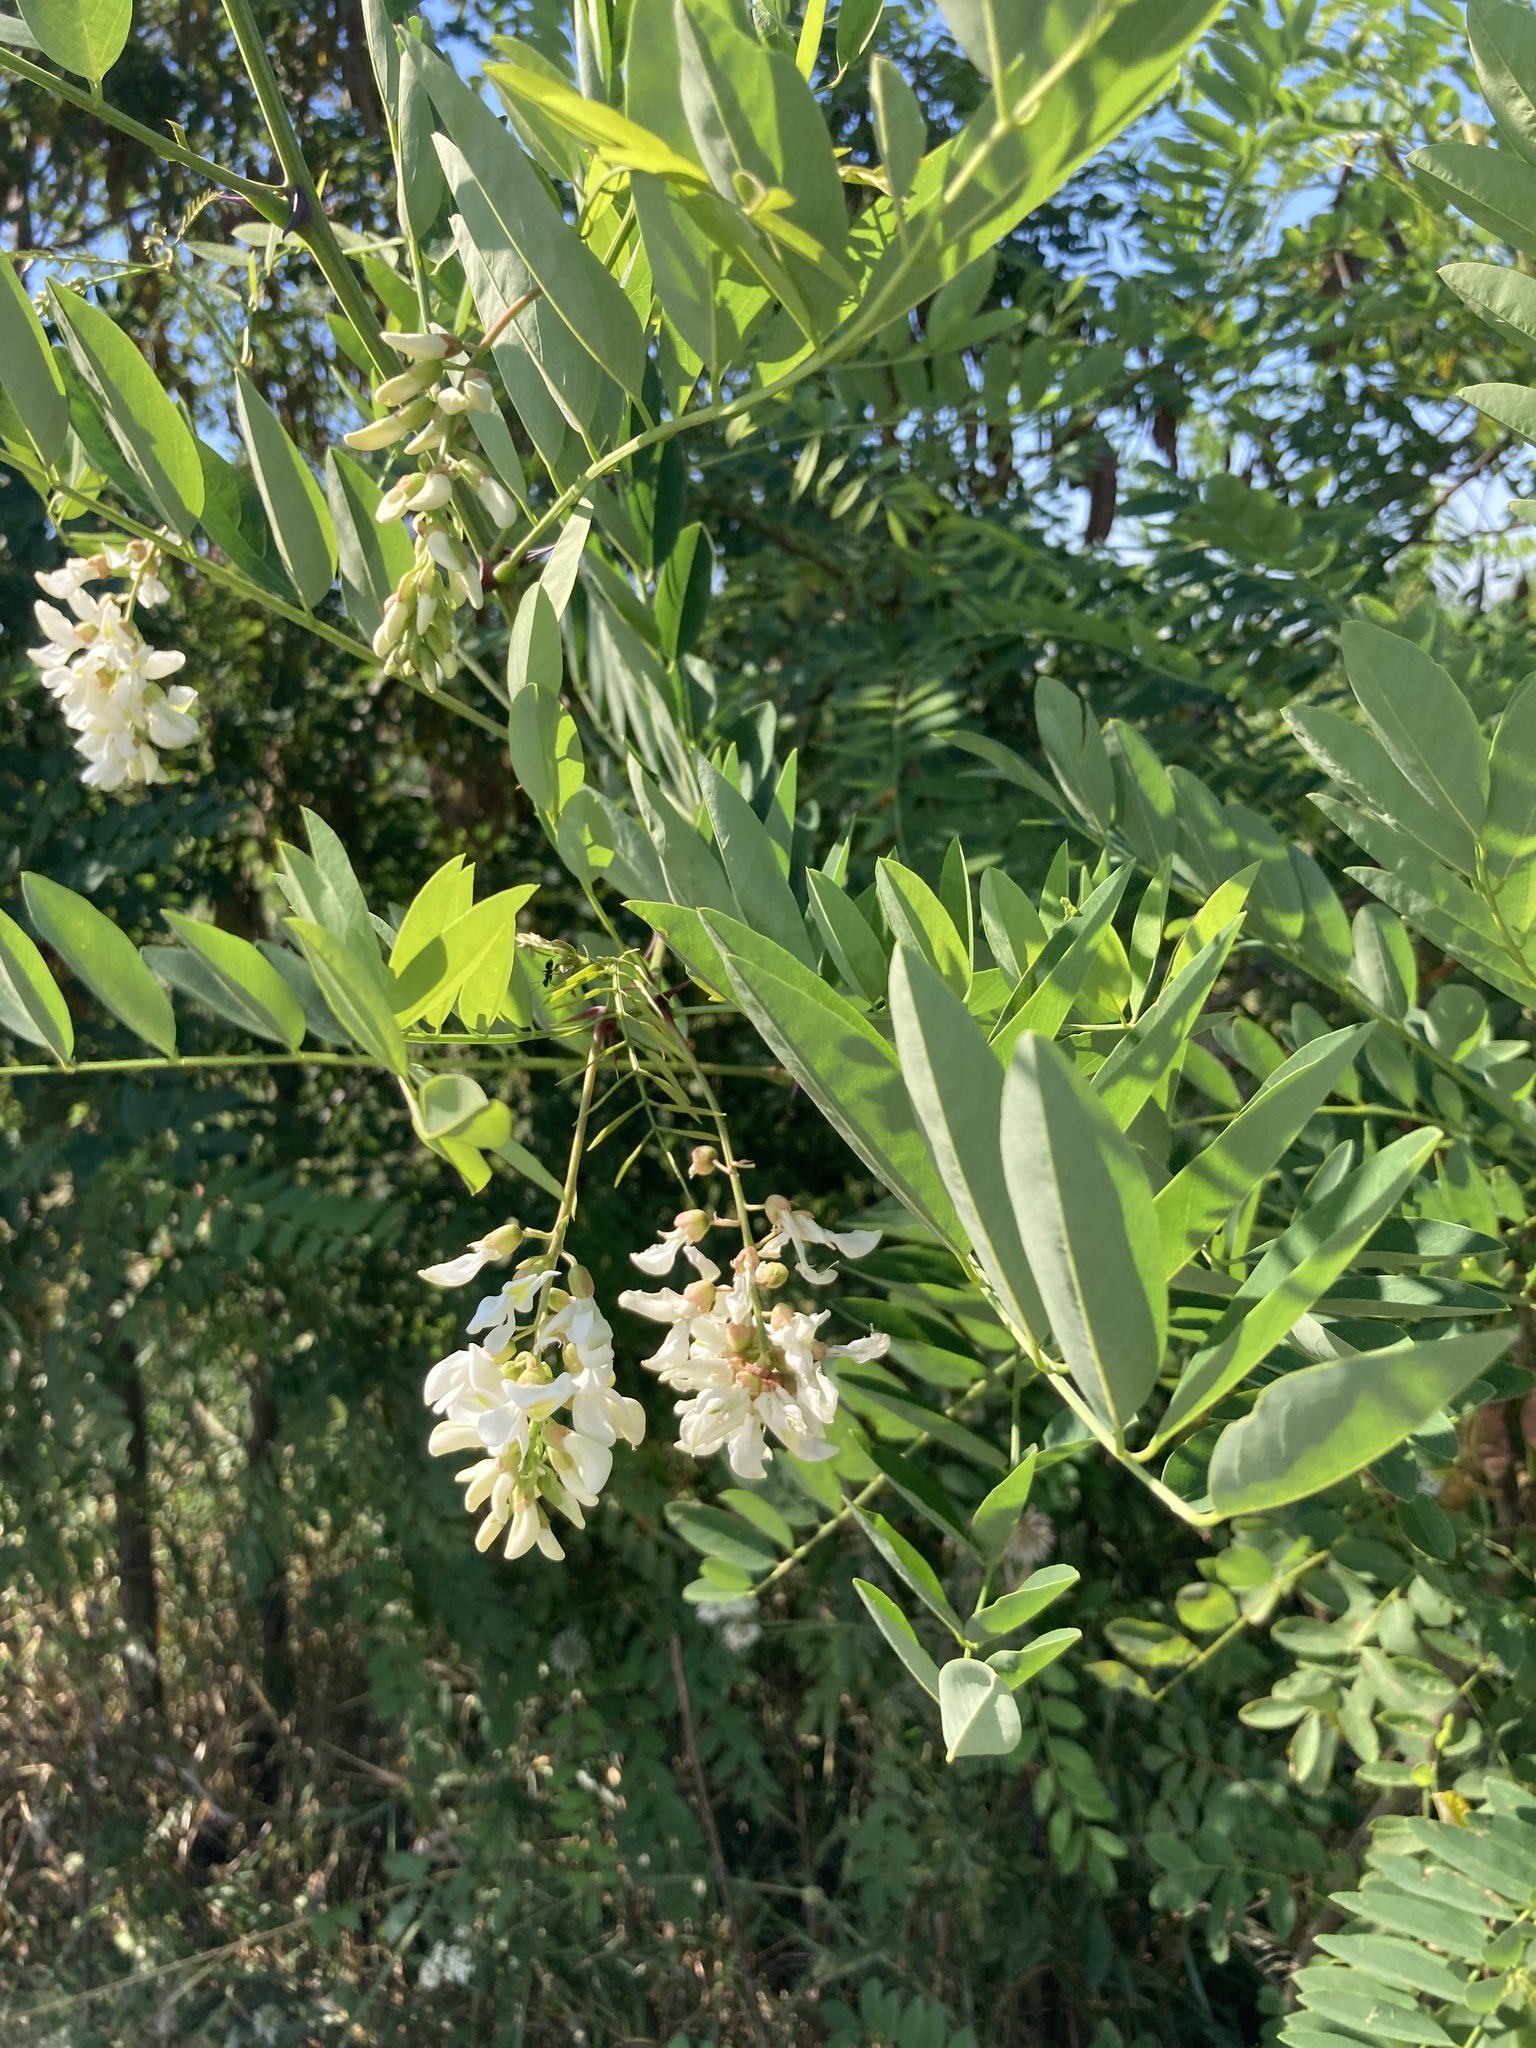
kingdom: Plantae
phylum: Tracheophyta
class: Magnoliopsida
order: Fabales
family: Fabaceae
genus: Robinia
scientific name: Robinia pseudoacacia
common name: Black locust
